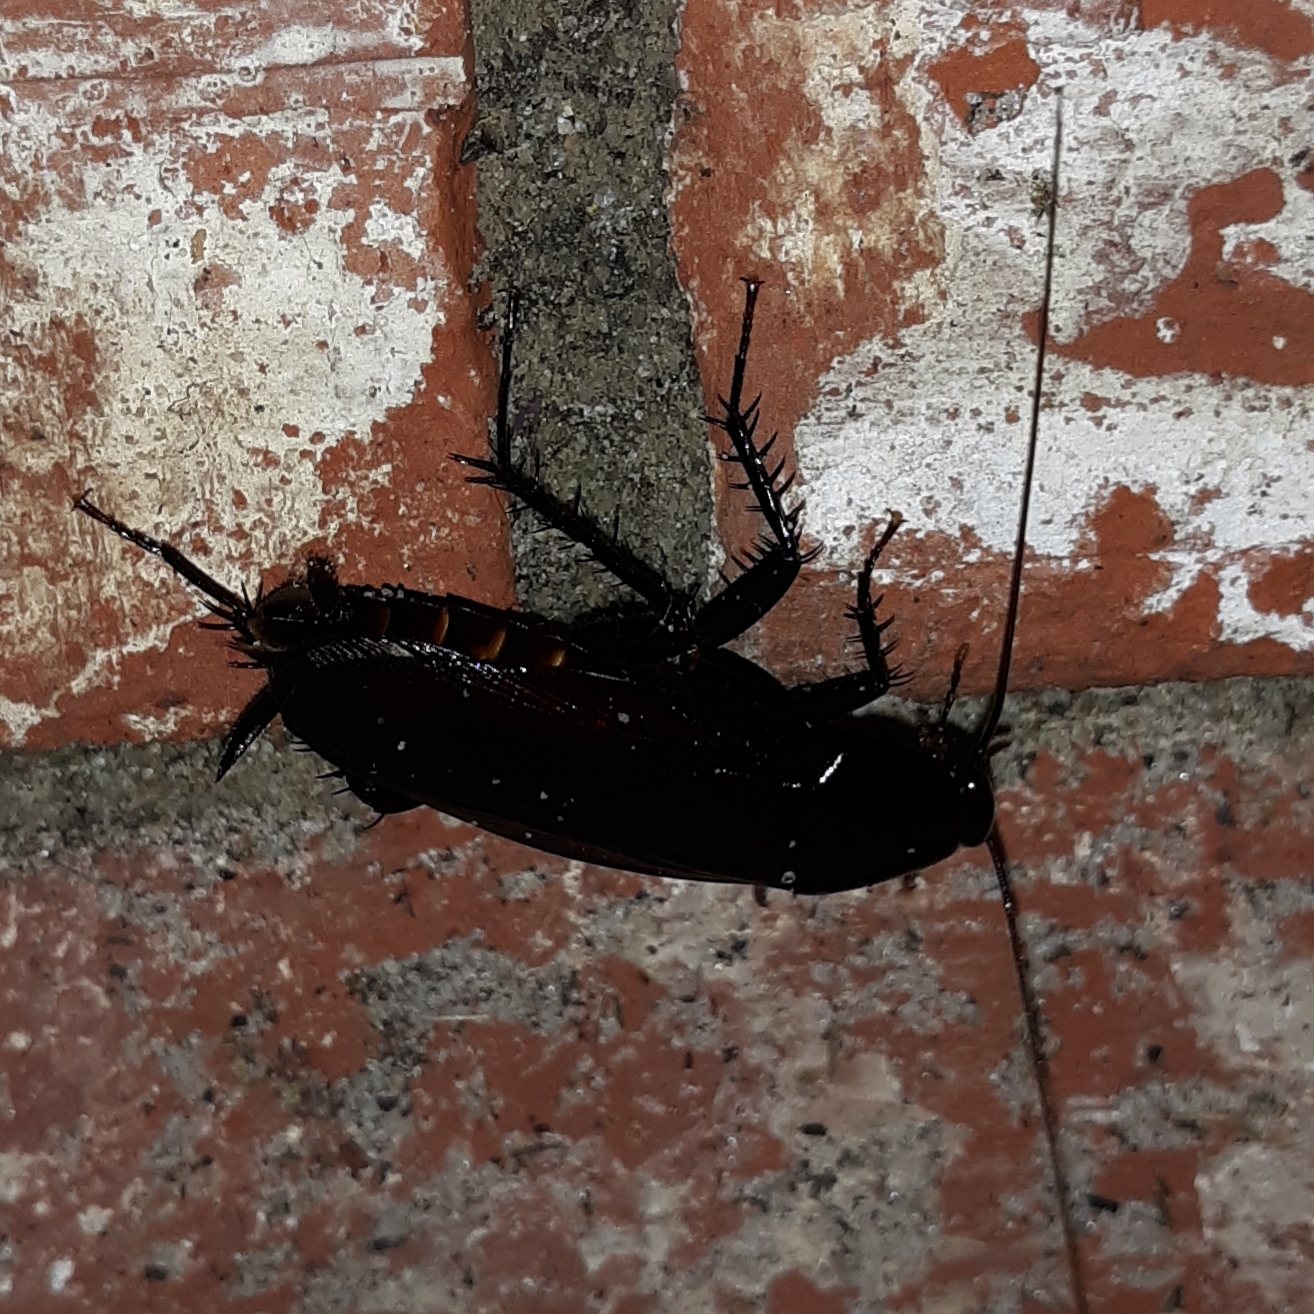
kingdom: Animalia
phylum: Arthropoda
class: Insecta
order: Blattodea
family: Blattidae
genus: Periplaneta
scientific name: Periplaneta fuliginosa
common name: Smokeybrown cockroad
